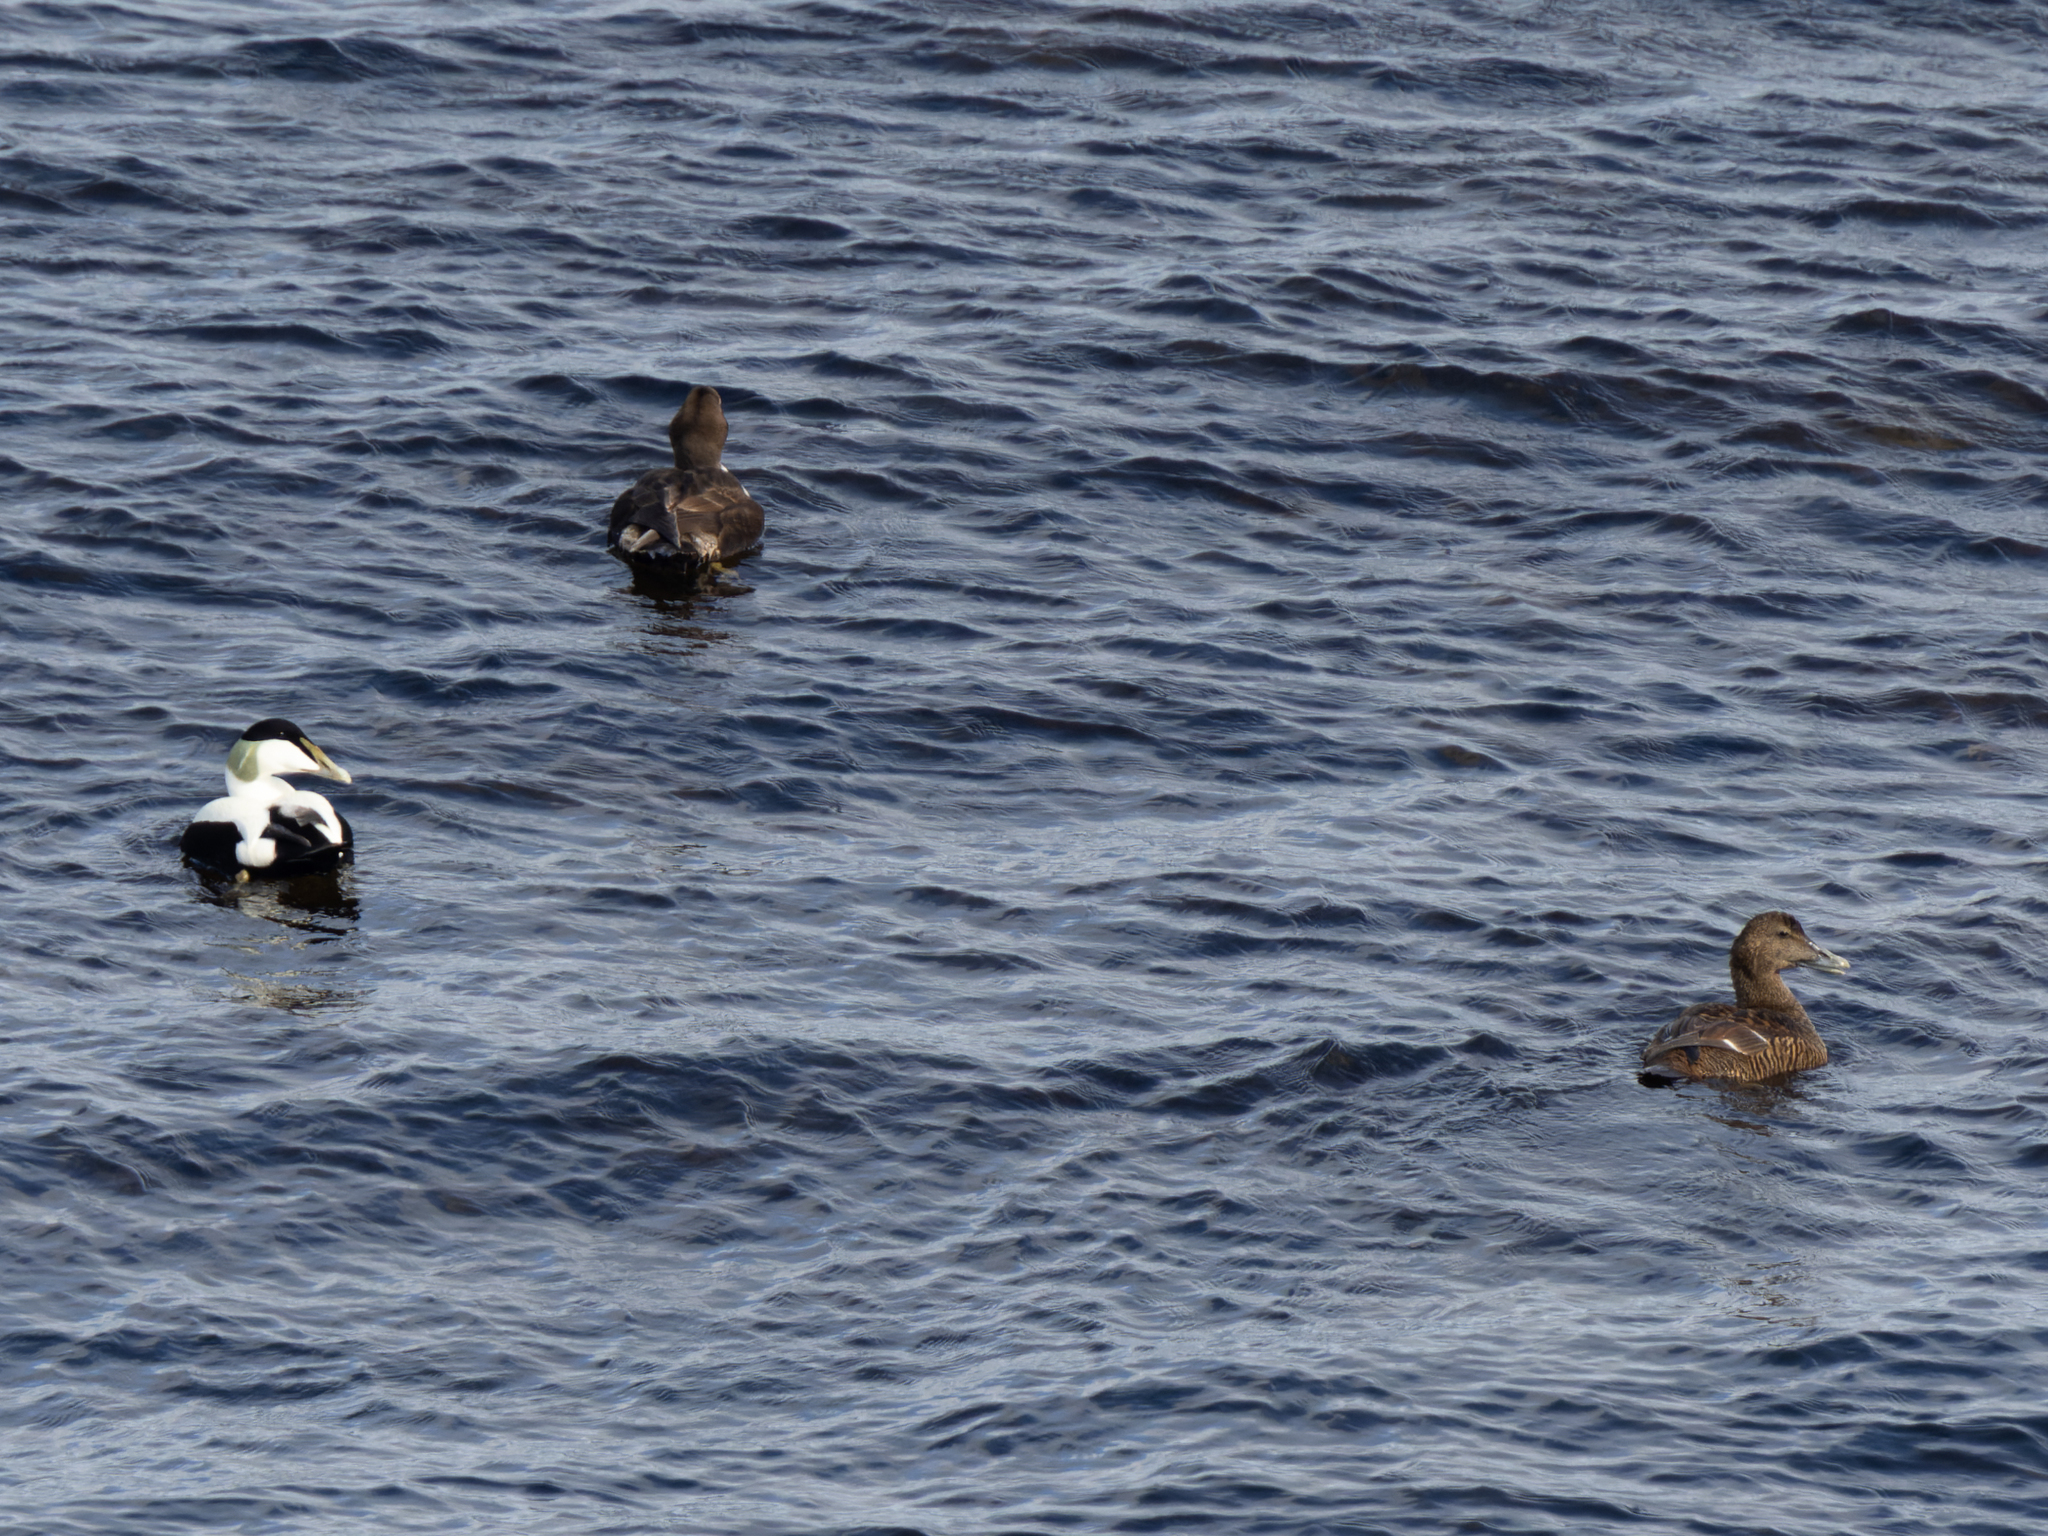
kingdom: Animalia
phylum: Chordata
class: Aves
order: Anseriformes
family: Anatidae
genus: Somateria
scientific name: Somateria mollissima
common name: Common eider
